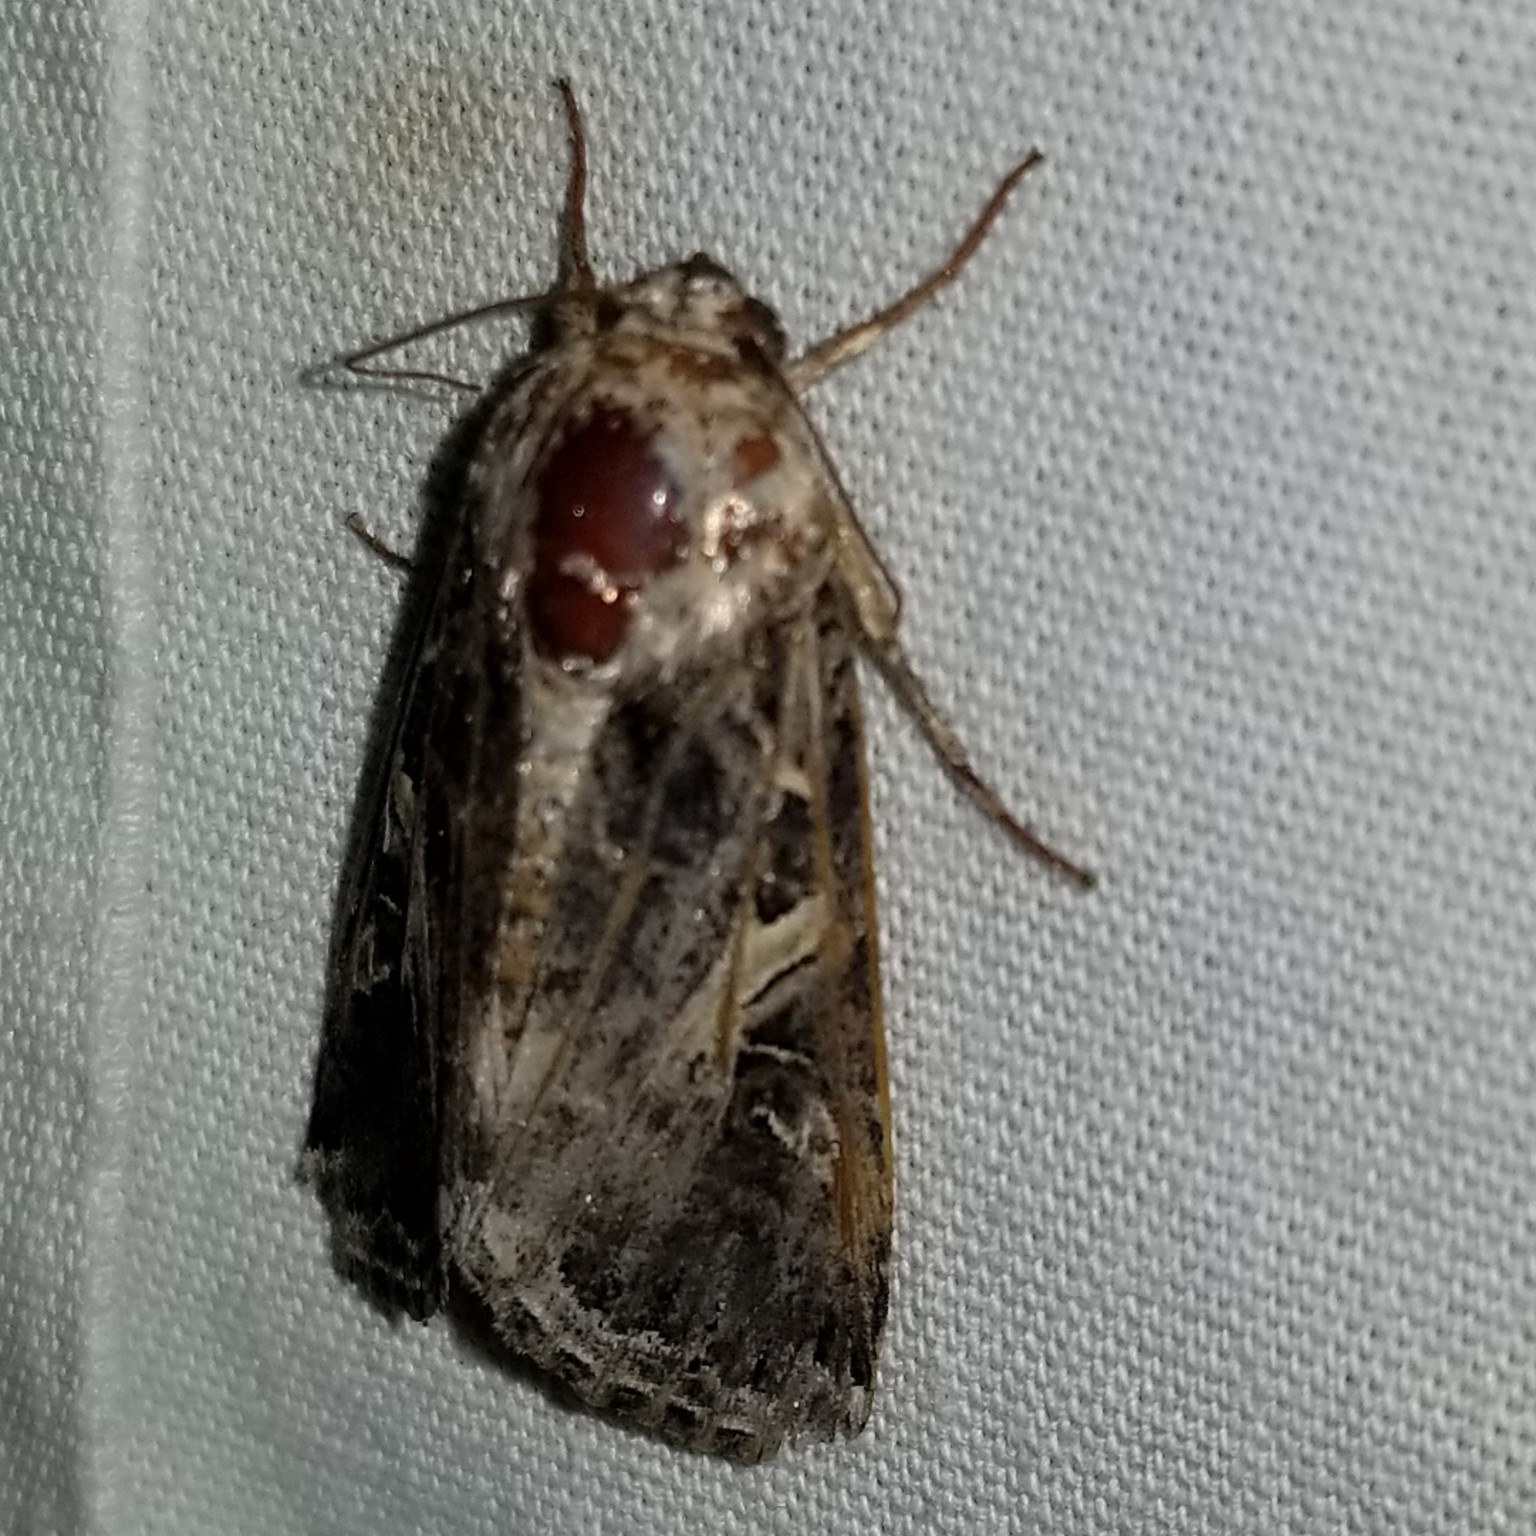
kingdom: Animalia
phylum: Arthropoda
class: Insecta
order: Lepidoptera
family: Noctuidae
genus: Spodoptera
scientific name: Spodoptera ornithogalli
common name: Yellow-striped armyworm
